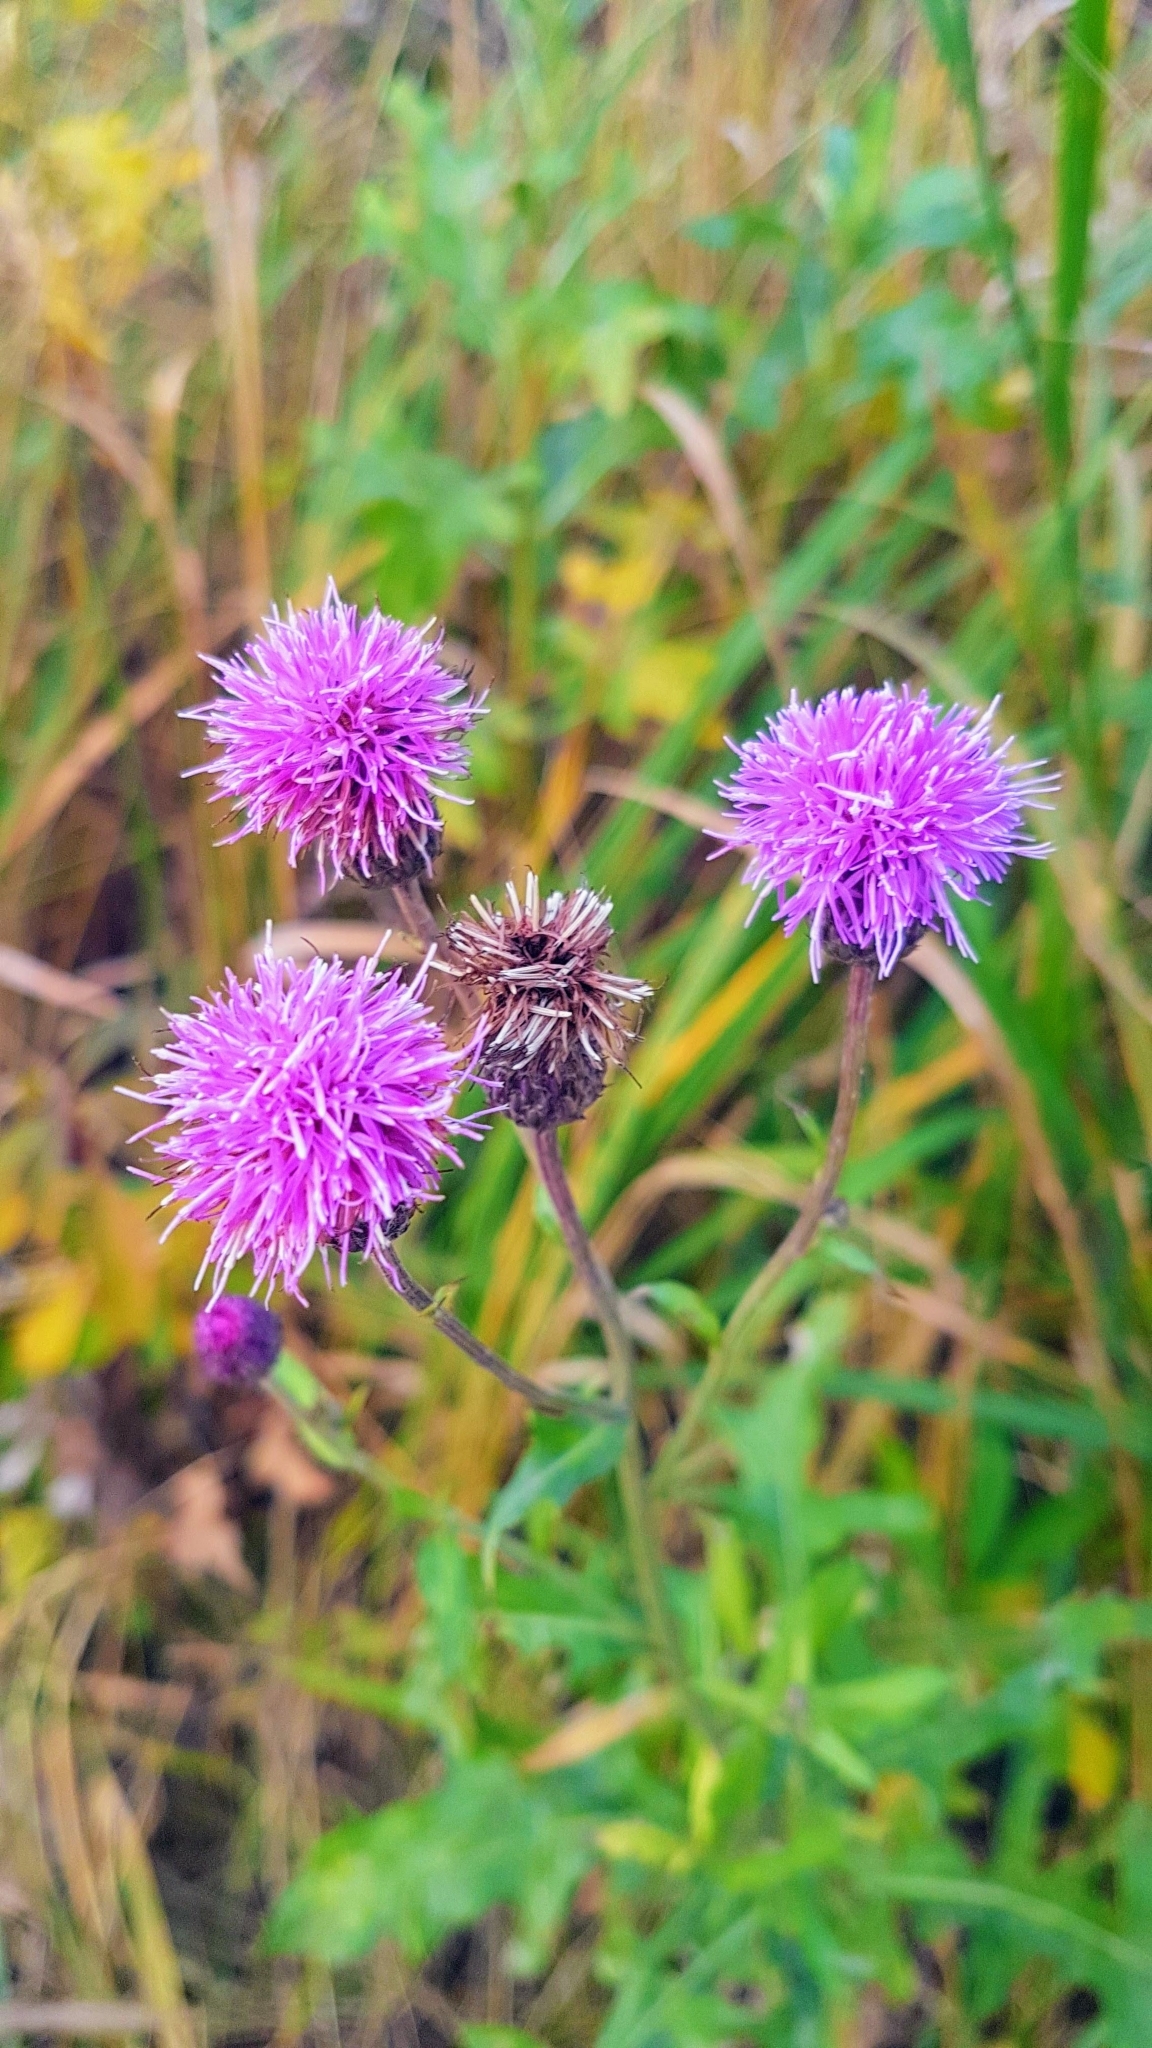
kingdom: Plantae
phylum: Tracheophyta
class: Magnoliopsida
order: Asterales
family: Asteraceae
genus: Cirsium
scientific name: Cirsium arvense
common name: Creeping thistle
